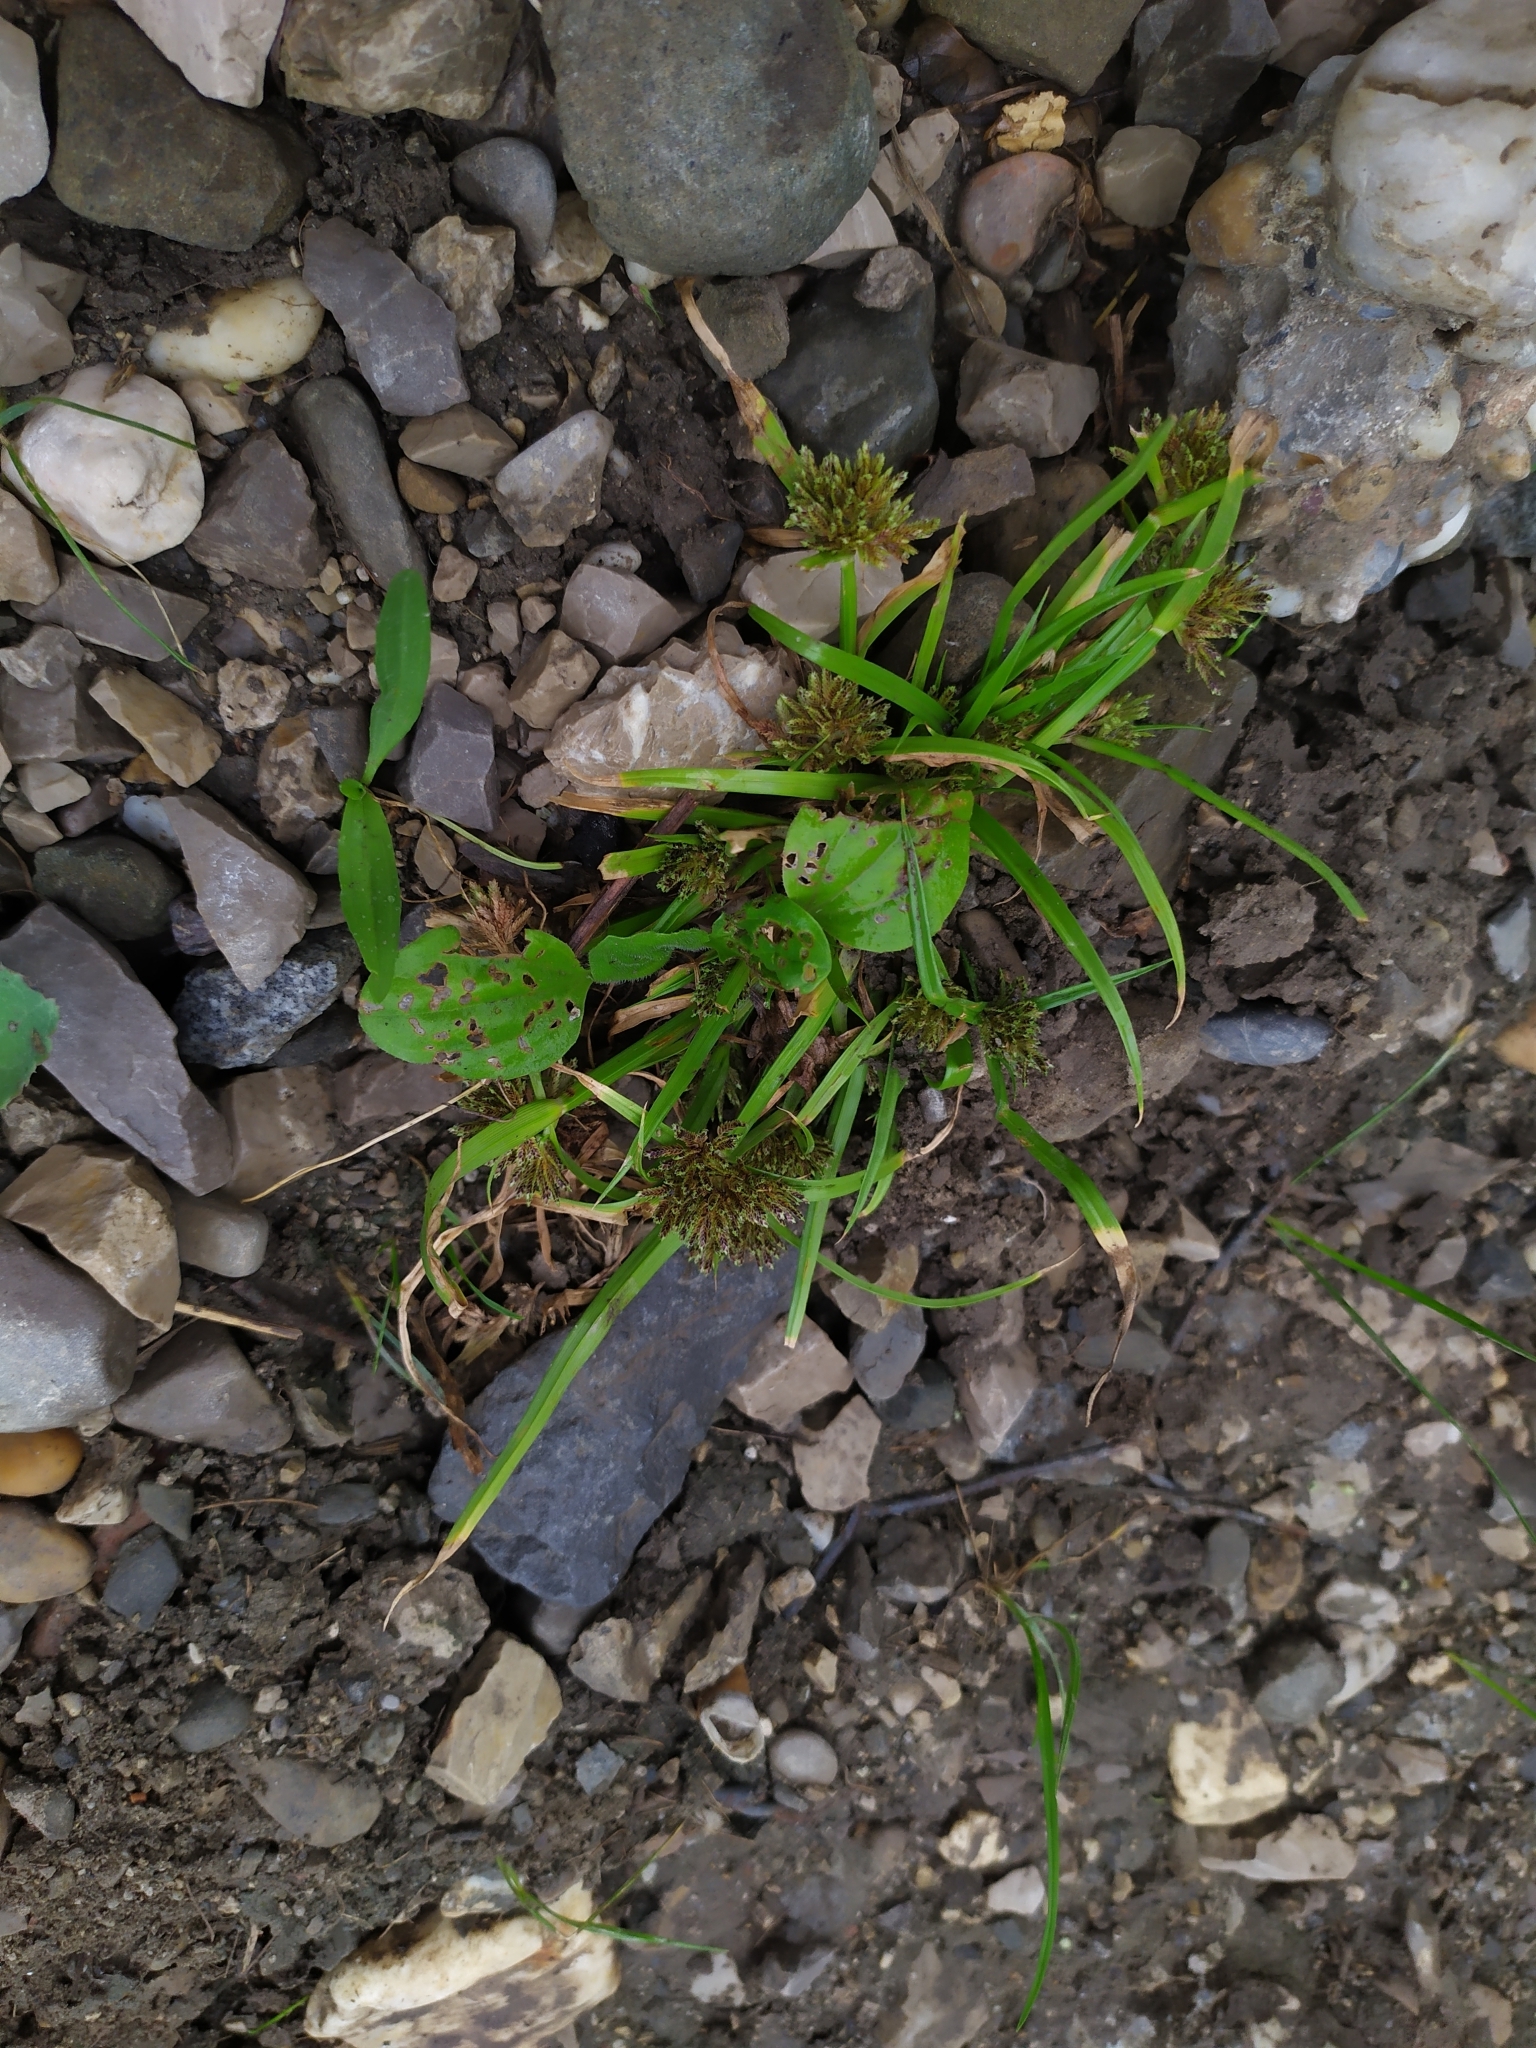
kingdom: Plantae
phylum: Tracheophyta
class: Liliopsida
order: Poales
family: Cyperaceae
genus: Cyperus
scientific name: Cyperus fuscus
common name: Brown galingale
